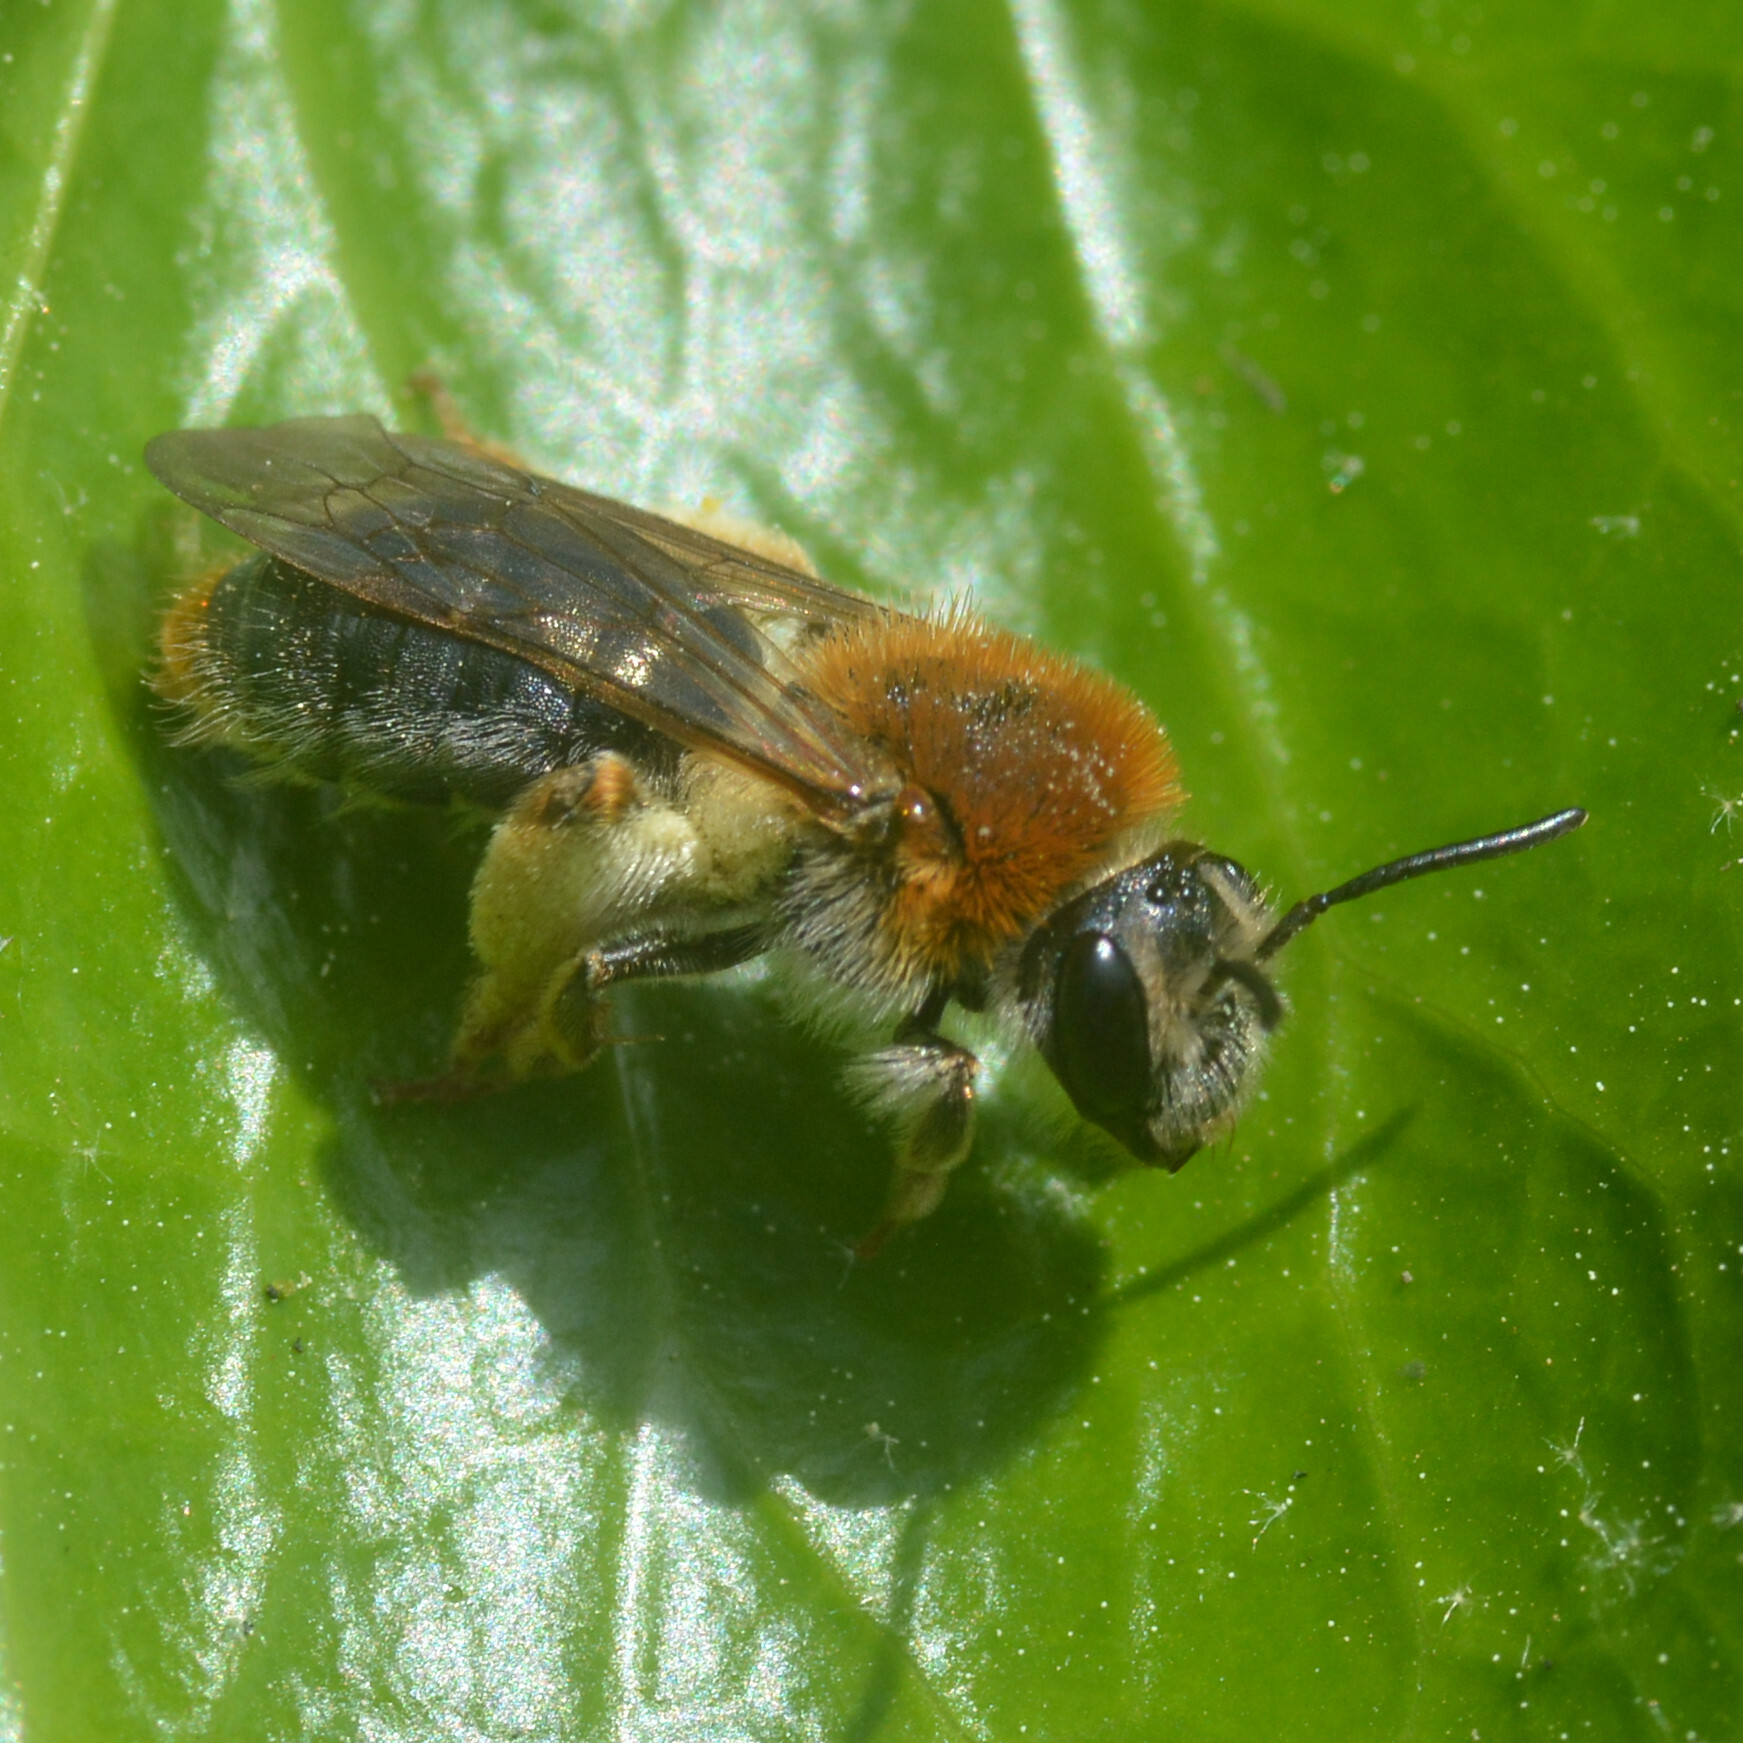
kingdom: Animalia
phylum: Arthropoda
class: Insecta
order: Hymenoptera
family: Andrenidae
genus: Andrena
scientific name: Andrena haemorrhoa
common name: Early mining bee
